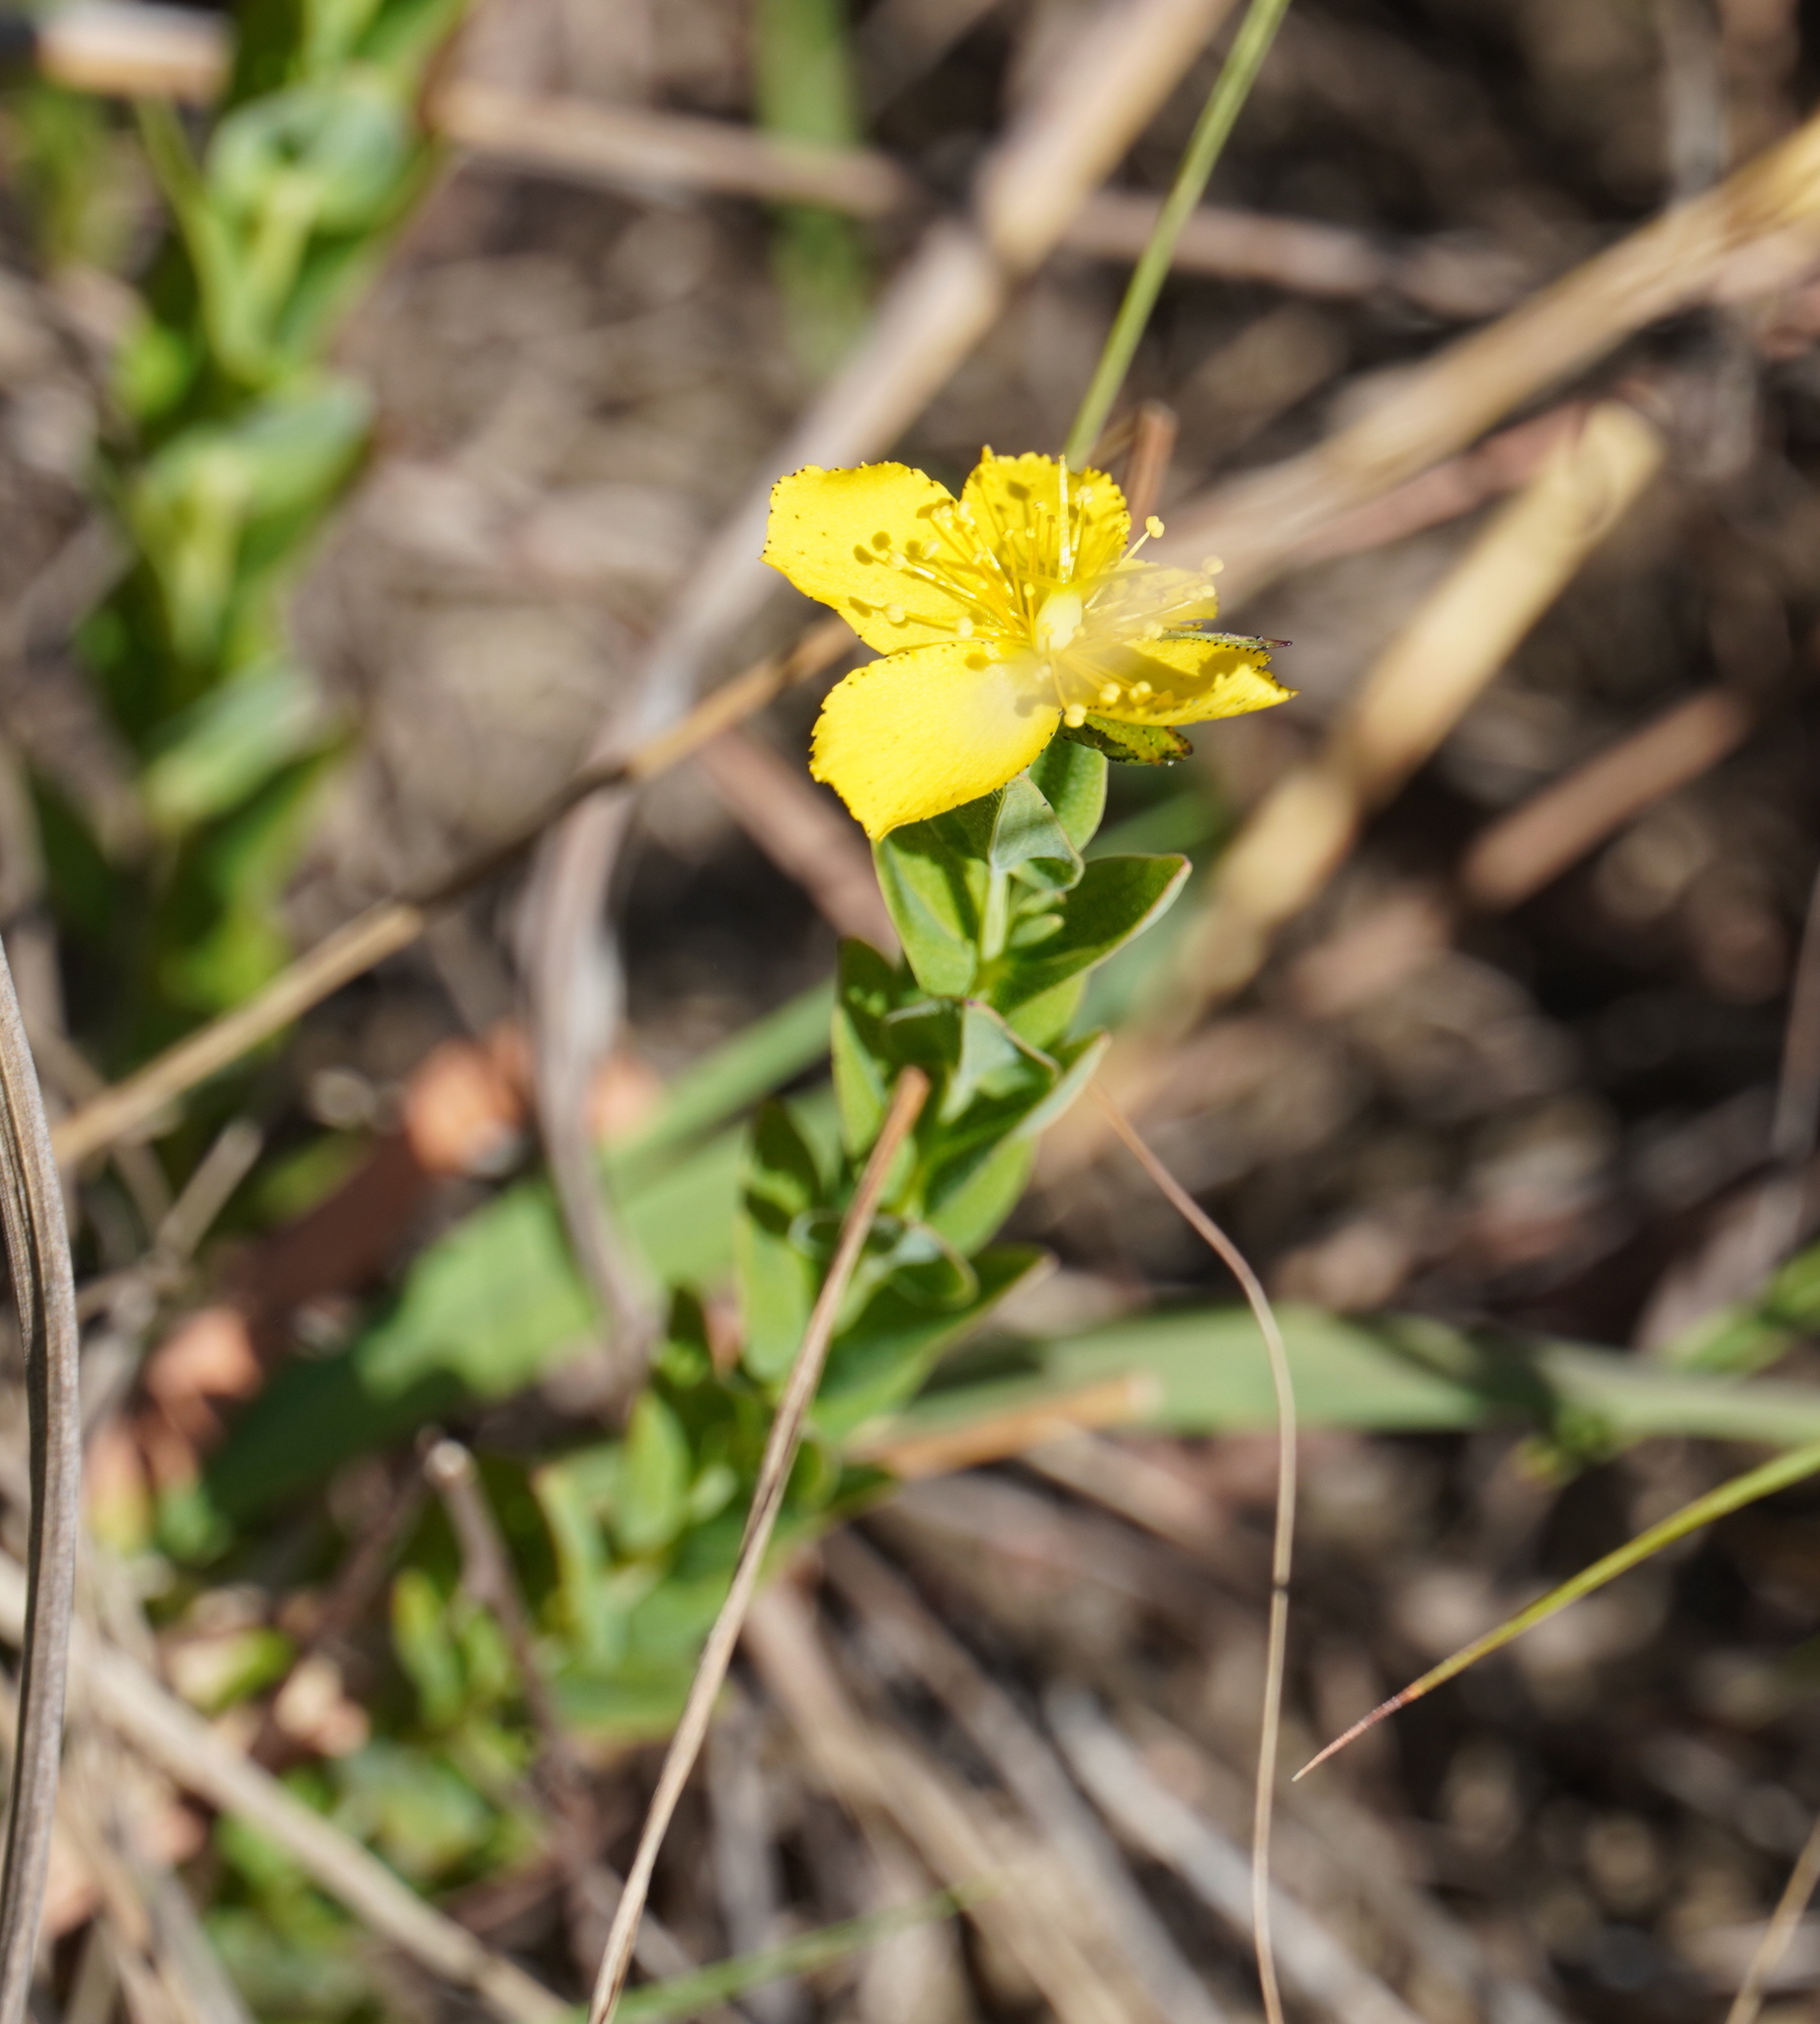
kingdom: Plantae
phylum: Tracheophyta
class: Magnoliopsida
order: Malpighiales
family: Hypericaceae
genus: Hypericum
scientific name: Hypericum aethiopicum
